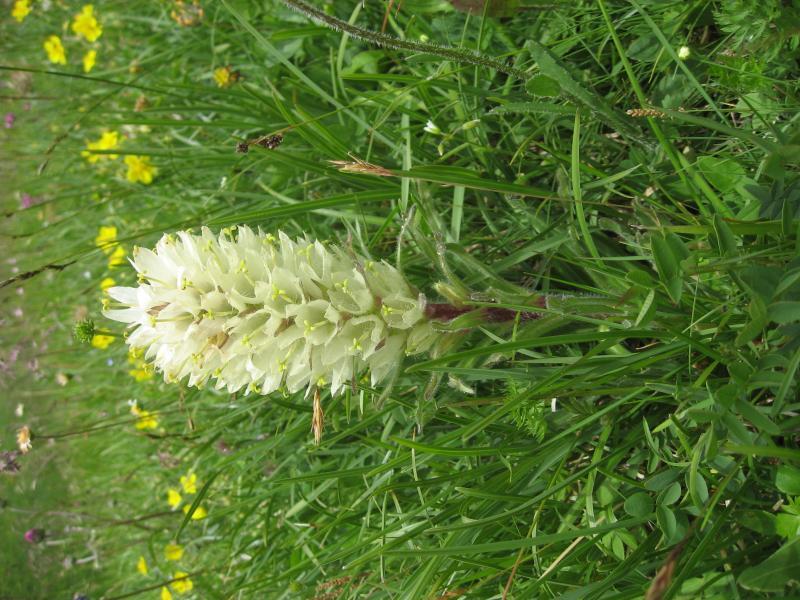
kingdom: Plantae
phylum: Tracheophyta
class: Magnoliopsida
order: Asterales
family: Campanulaceae
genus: Campanula
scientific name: Campanula thyrsoides
